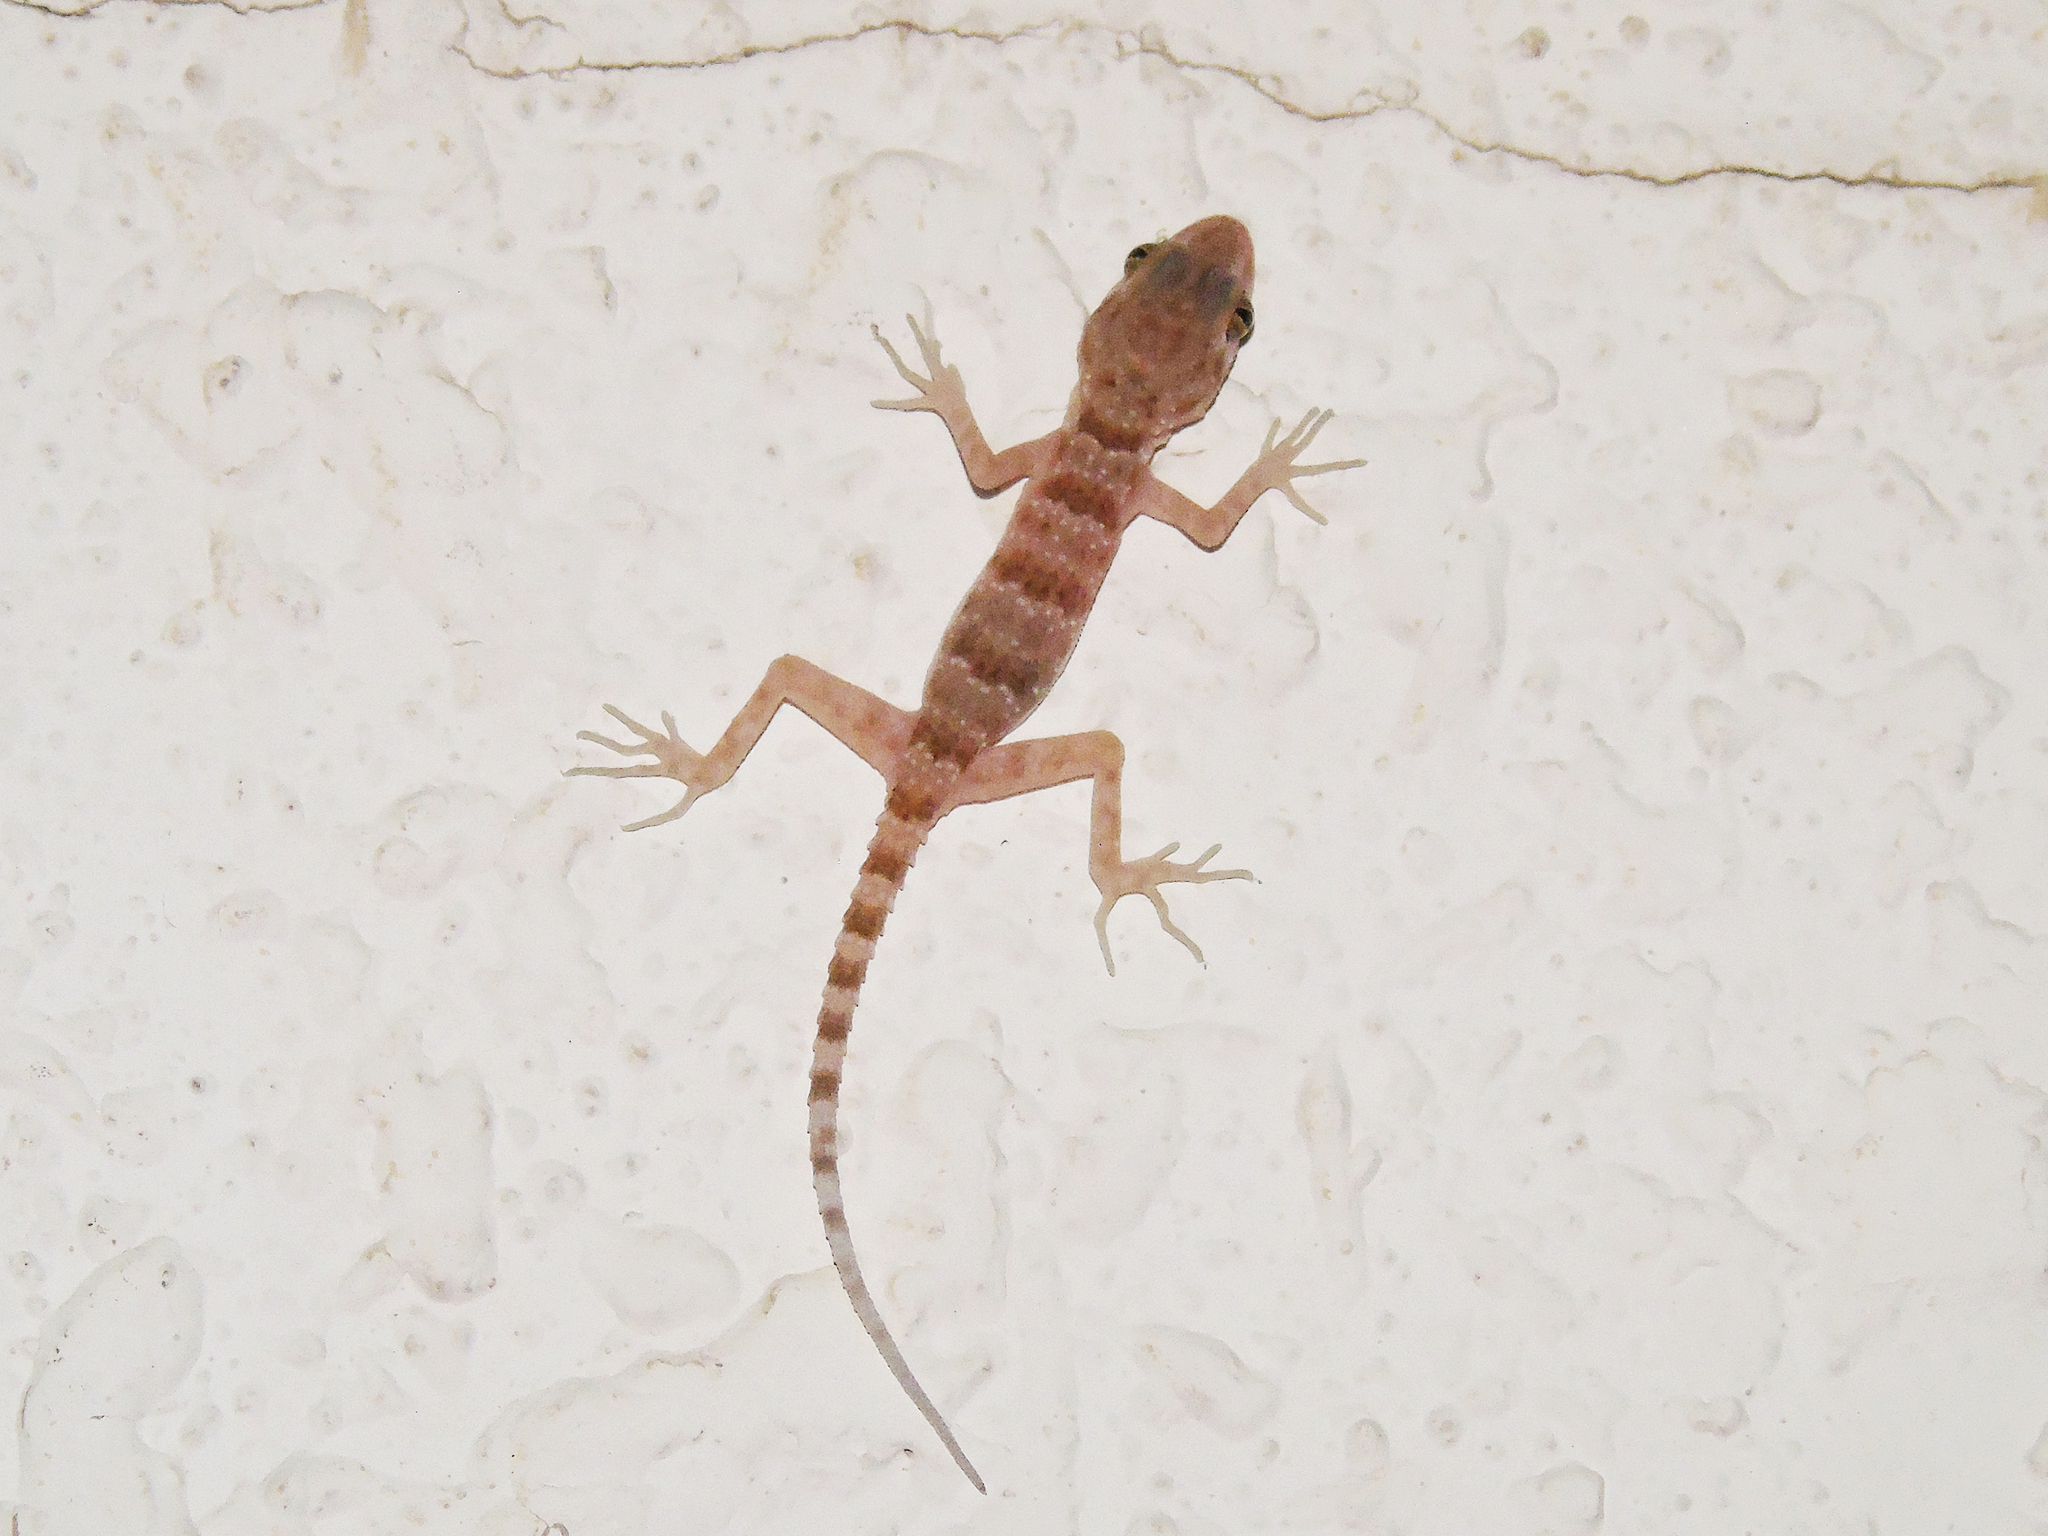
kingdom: Animalia
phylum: Chordata
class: Squamata
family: Gekkonidae
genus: Tenuidactylus
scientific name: Tenuidactylus bogdanovi
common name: Bogdanov’s thin-toed gecko
